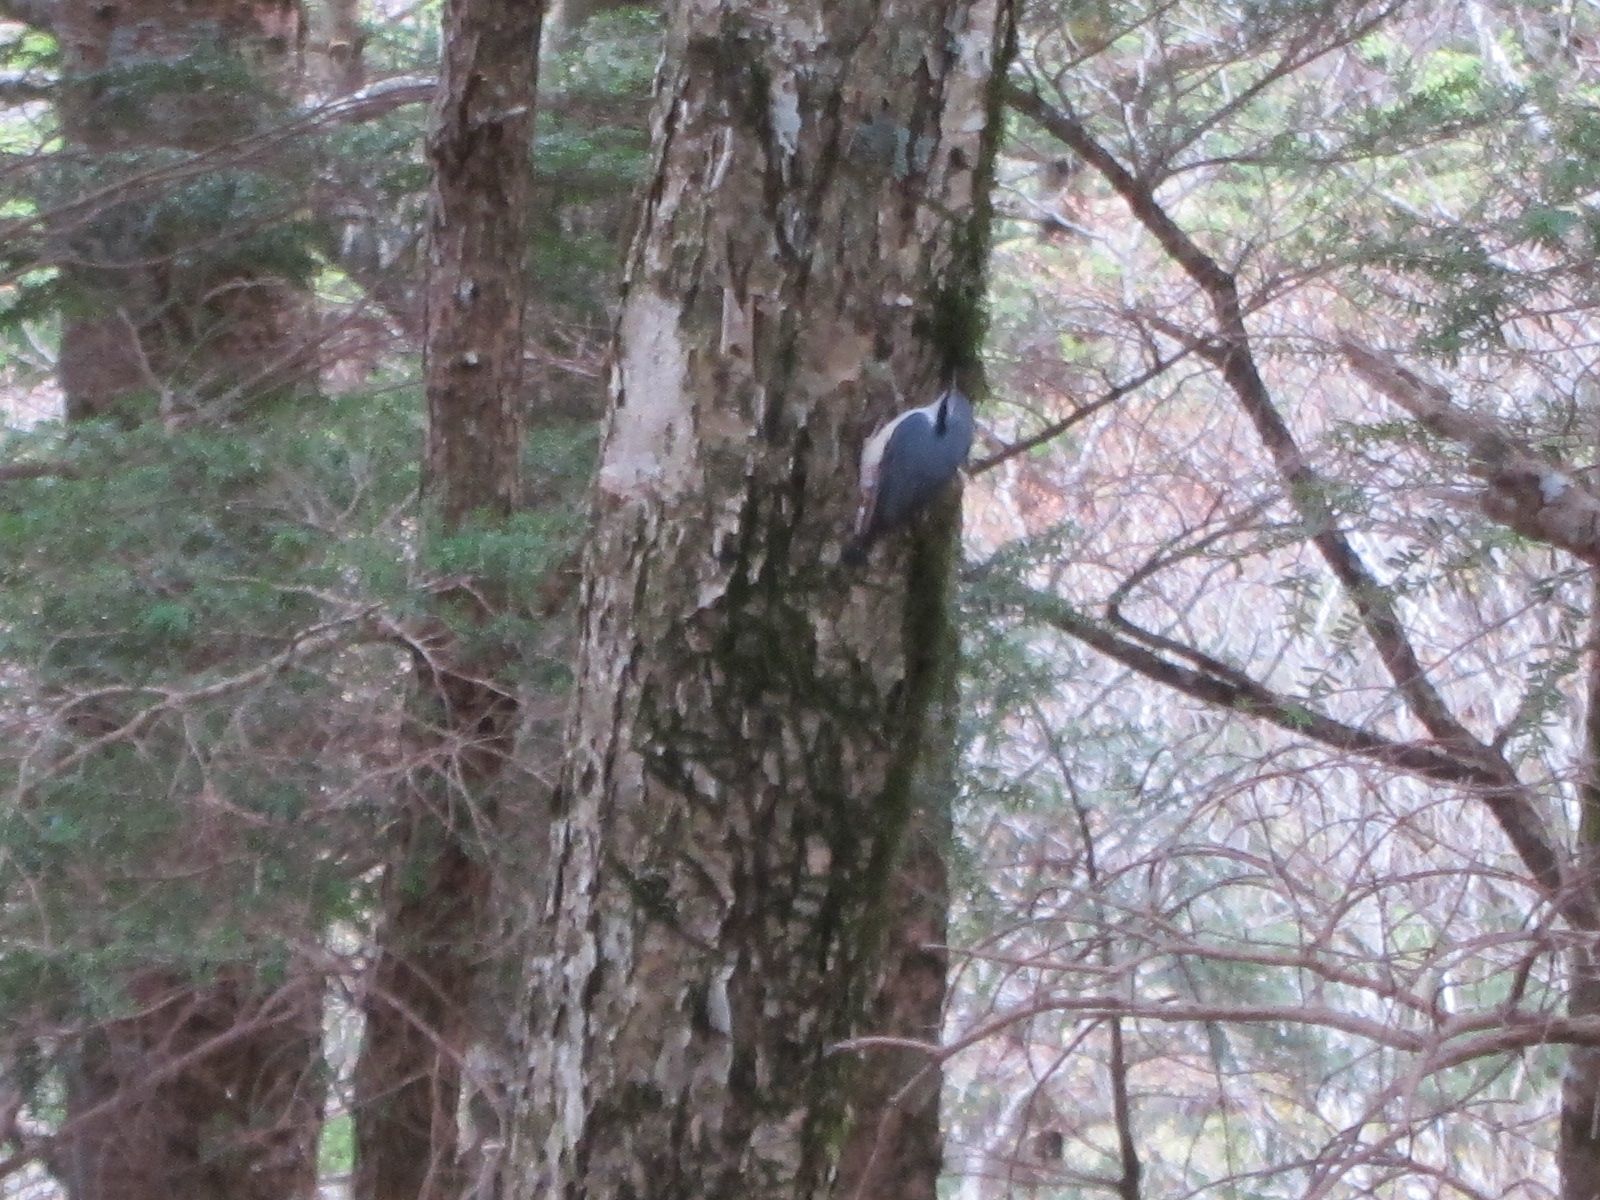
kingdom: Animalia
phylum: Chordata
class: Aves
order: Passeriformes
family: Sittidae
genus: Sitta
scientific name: Sitta europaea
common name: Eurasian nuthatch
